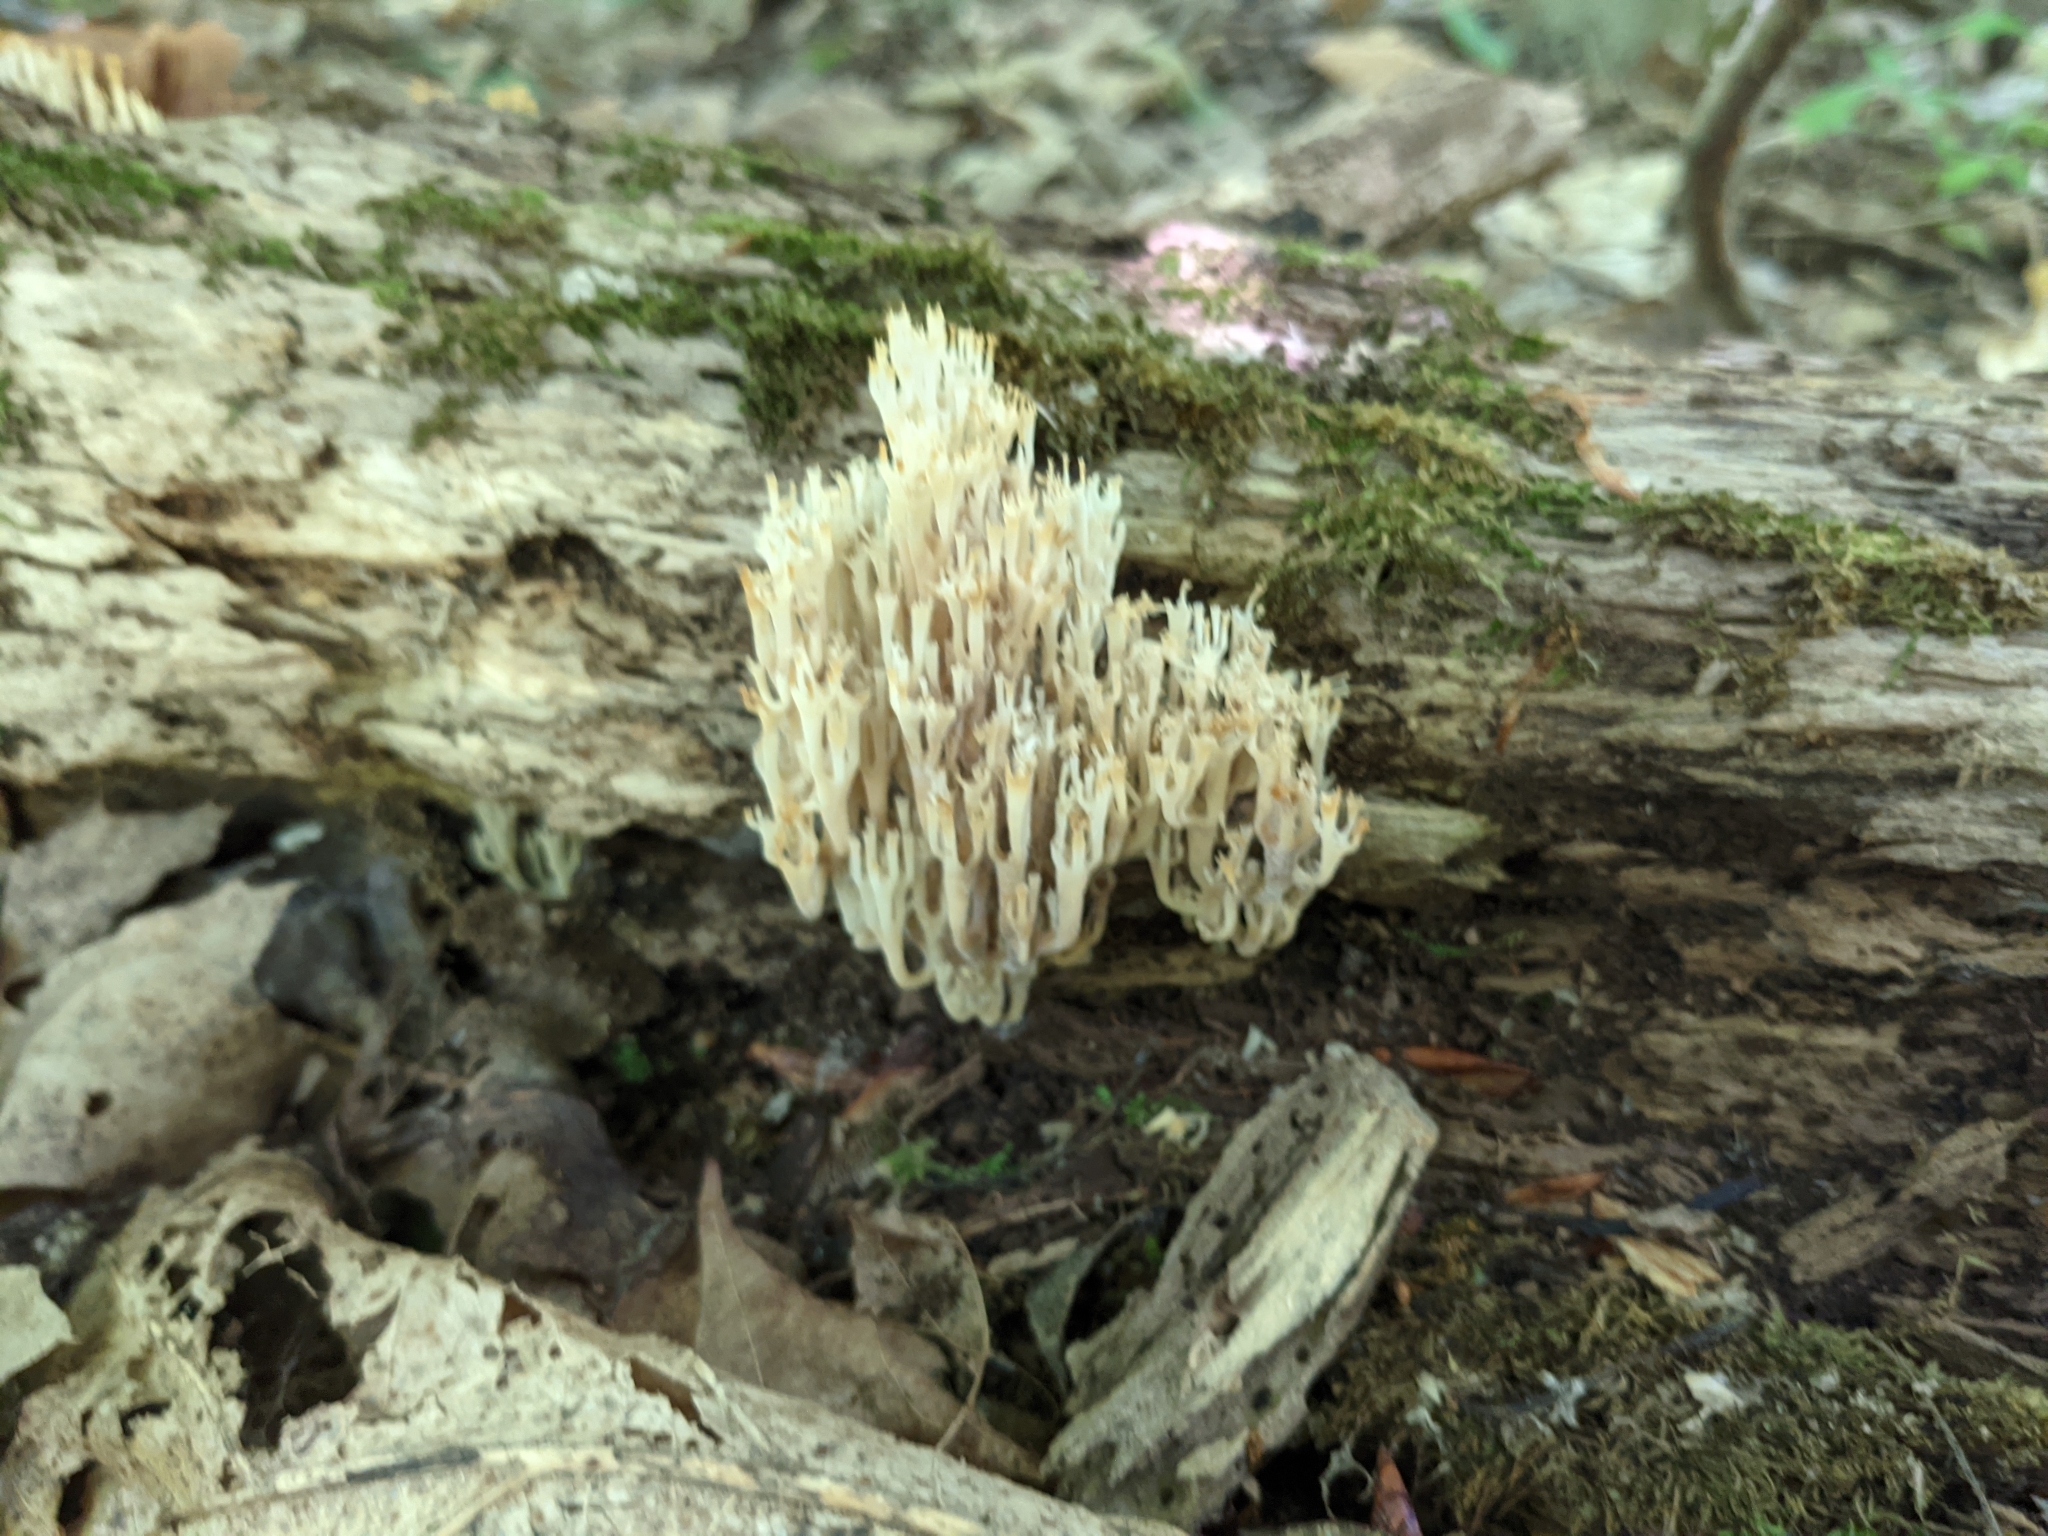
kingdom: Fungi
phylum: Basidiomycota
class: Agaricomycetes
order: Russulales
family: Auriscalpiaceae
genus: Artomyces
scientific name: Artomyces pyxidatus
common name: Crown-tipped coral fungus
